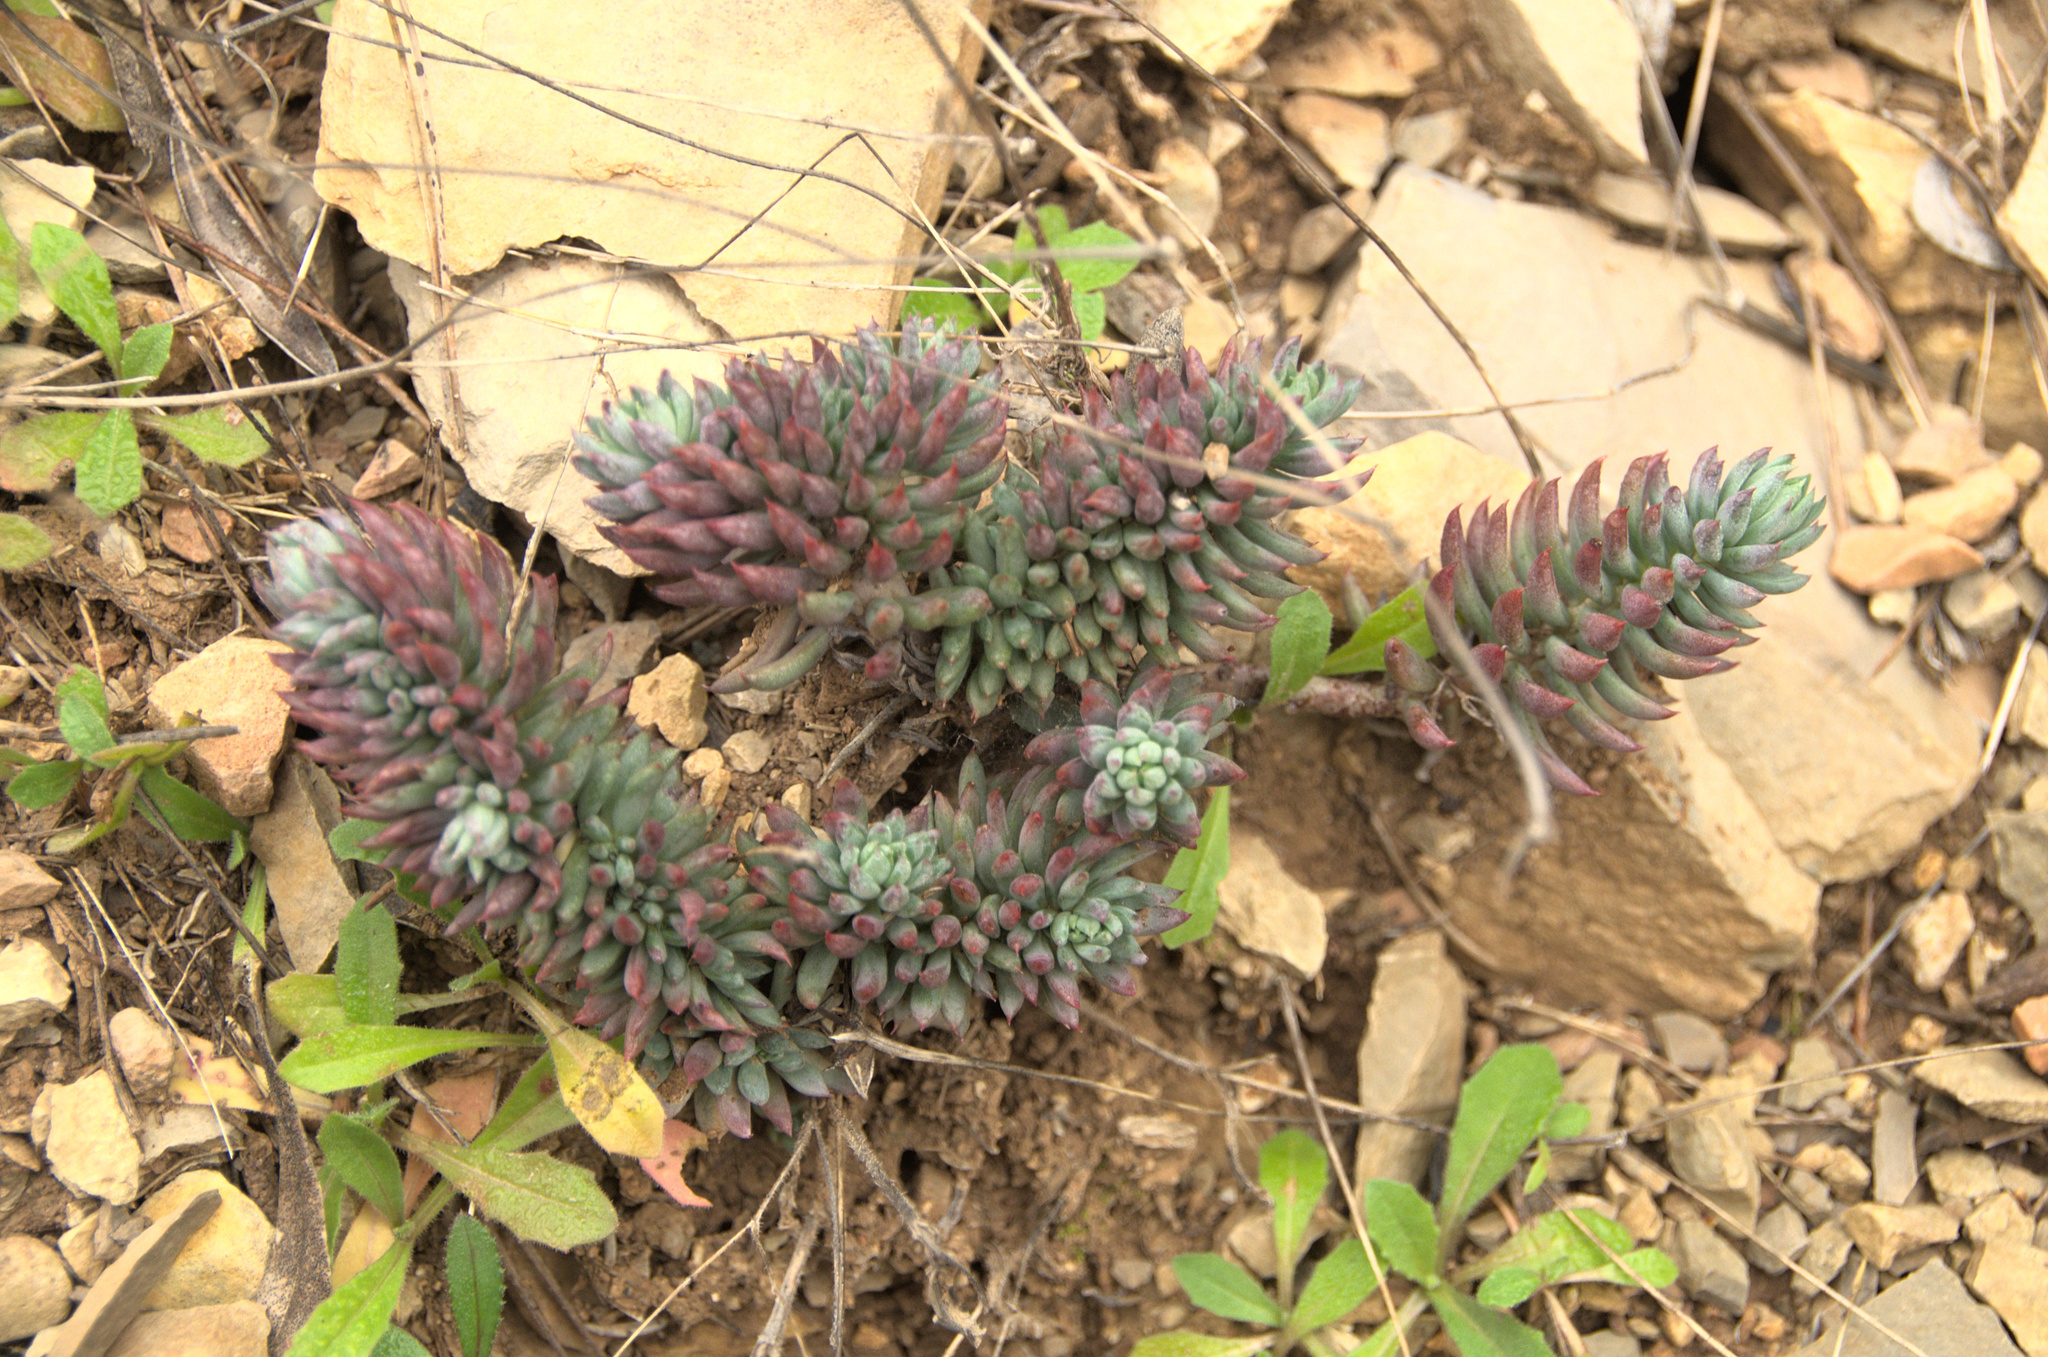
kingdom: Plantae
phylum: Tracheophyta
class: Magnoliopsida
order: Saxifragales
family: Crassulaceae
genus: Petrosedum
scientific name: Petrosedum sediforme
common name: Pale stonecrop
